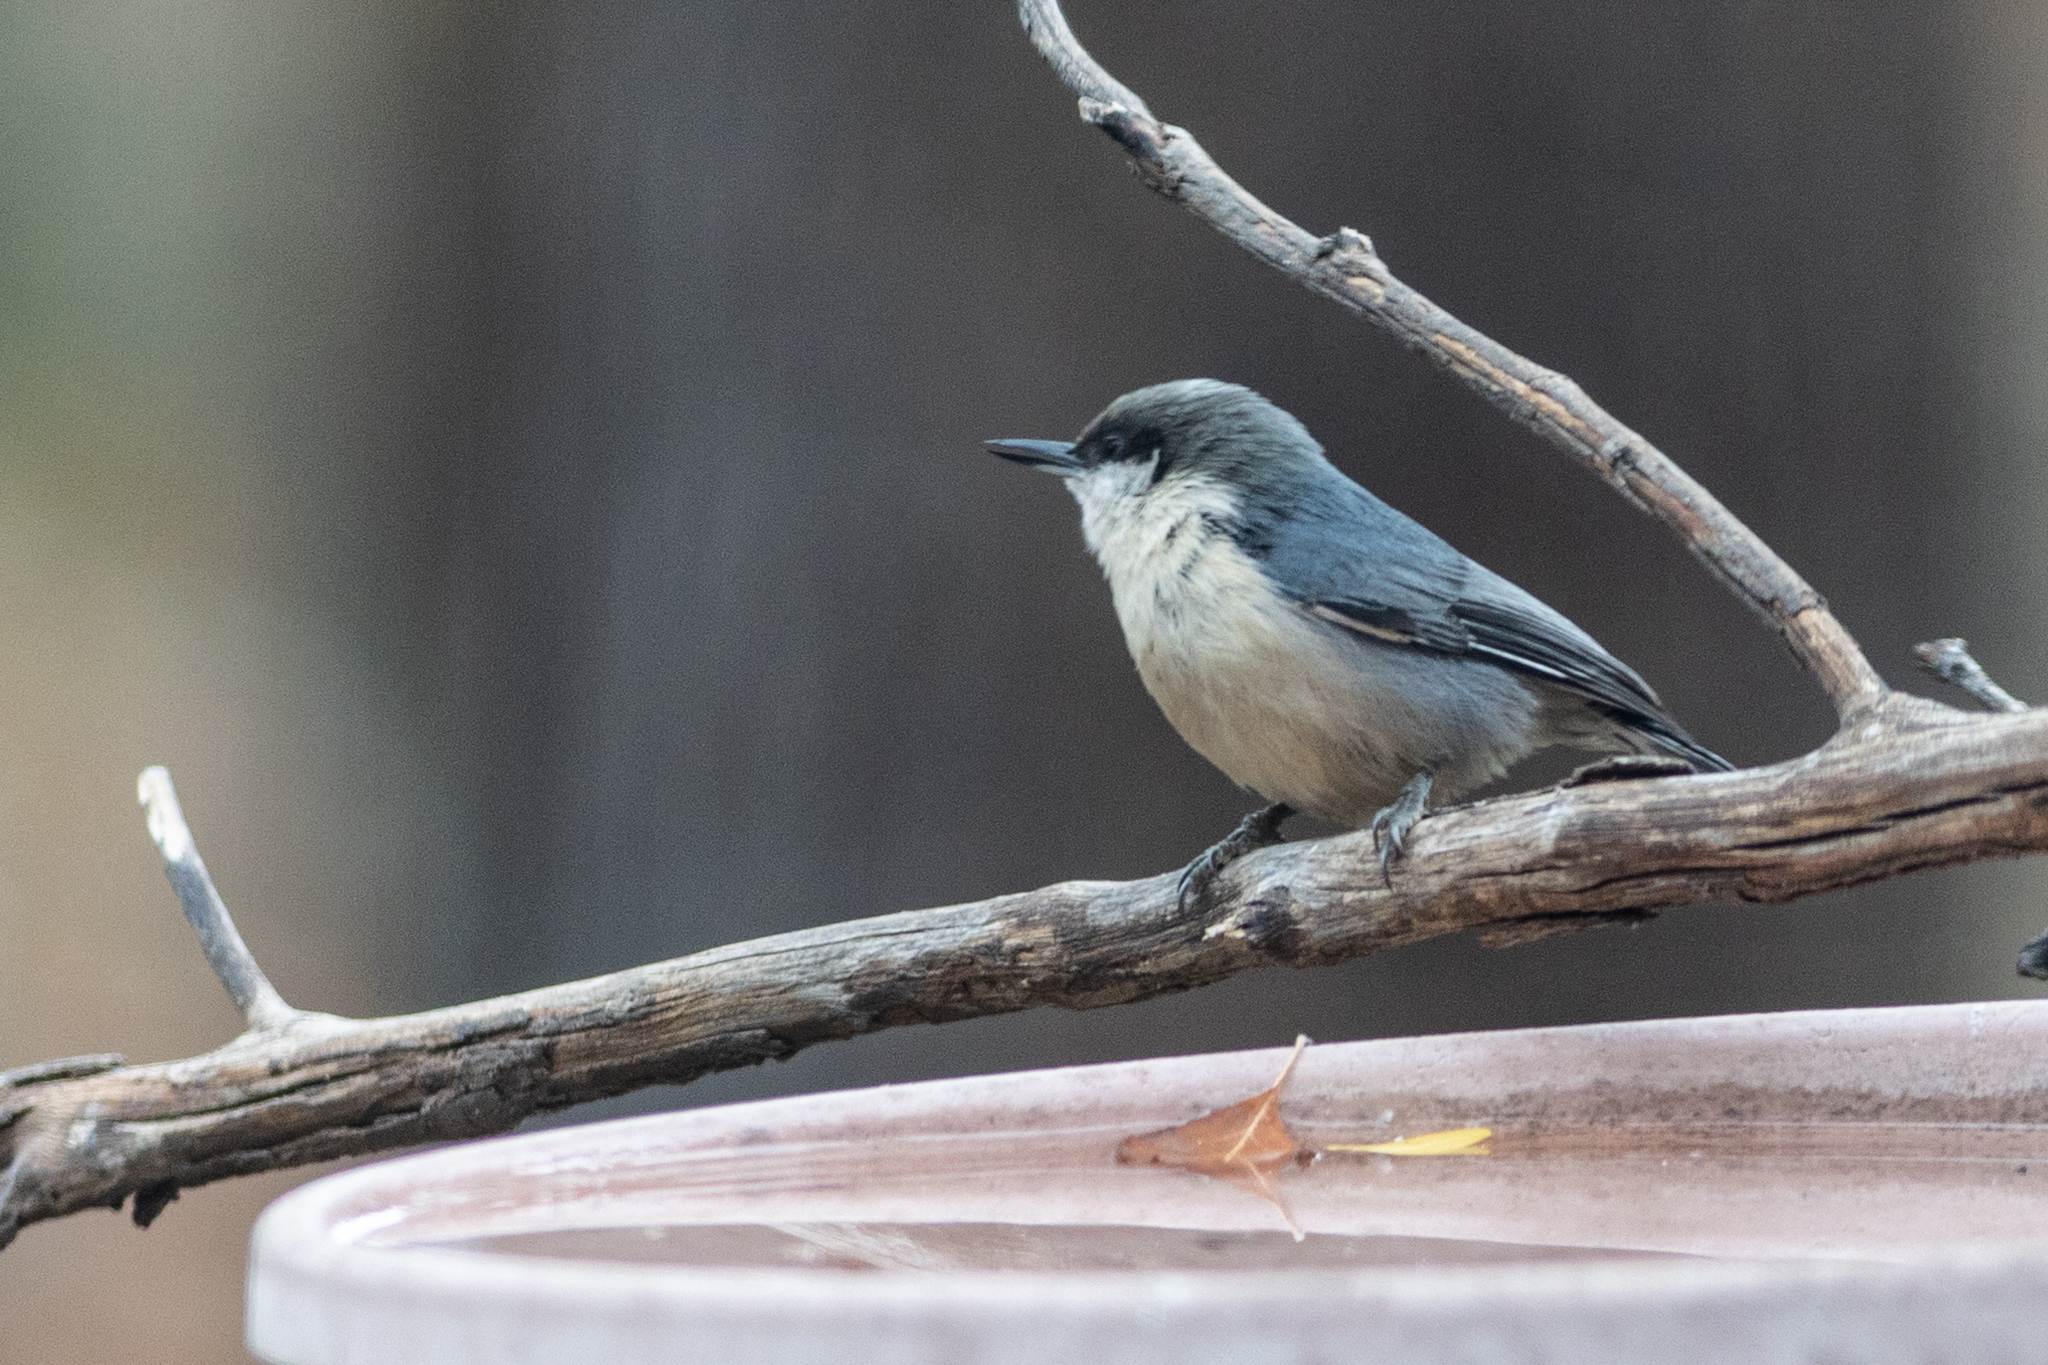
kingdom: Animalia
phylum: Chordata
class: Aves
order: Passeriformes
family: Sittidae
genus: Sitta
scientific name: Sitta pygmaea
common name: Pygmy nuthatch
